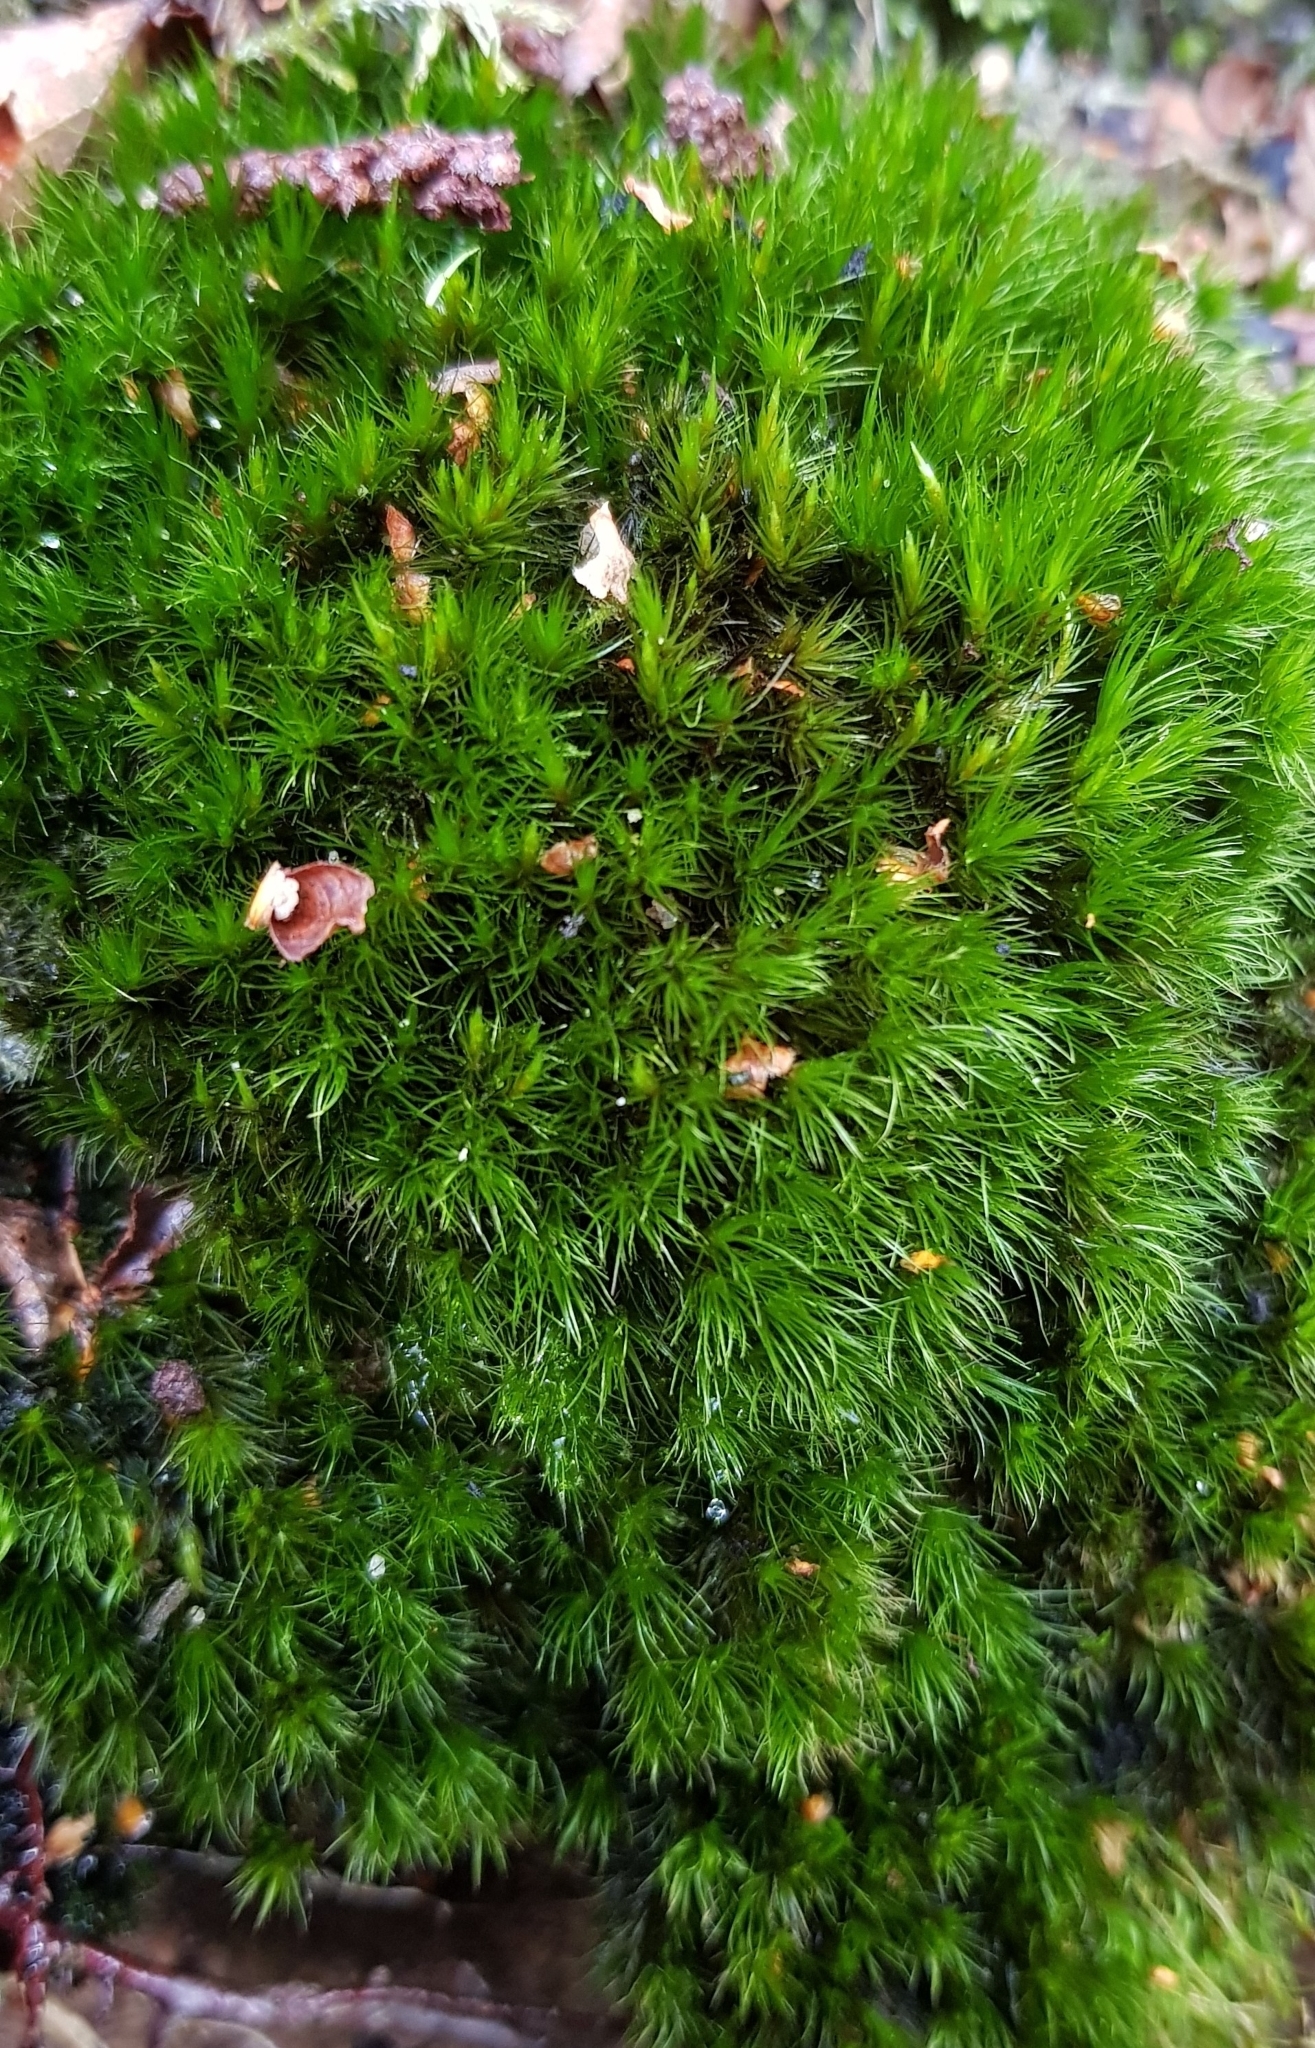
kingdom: Plantae
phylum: Bryophyta
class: Bryopsida
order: Dicranales
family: Leucobryaceae
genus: Campylopus
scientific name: Campylopus flexuosus
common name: Rusty swan-neck moss
